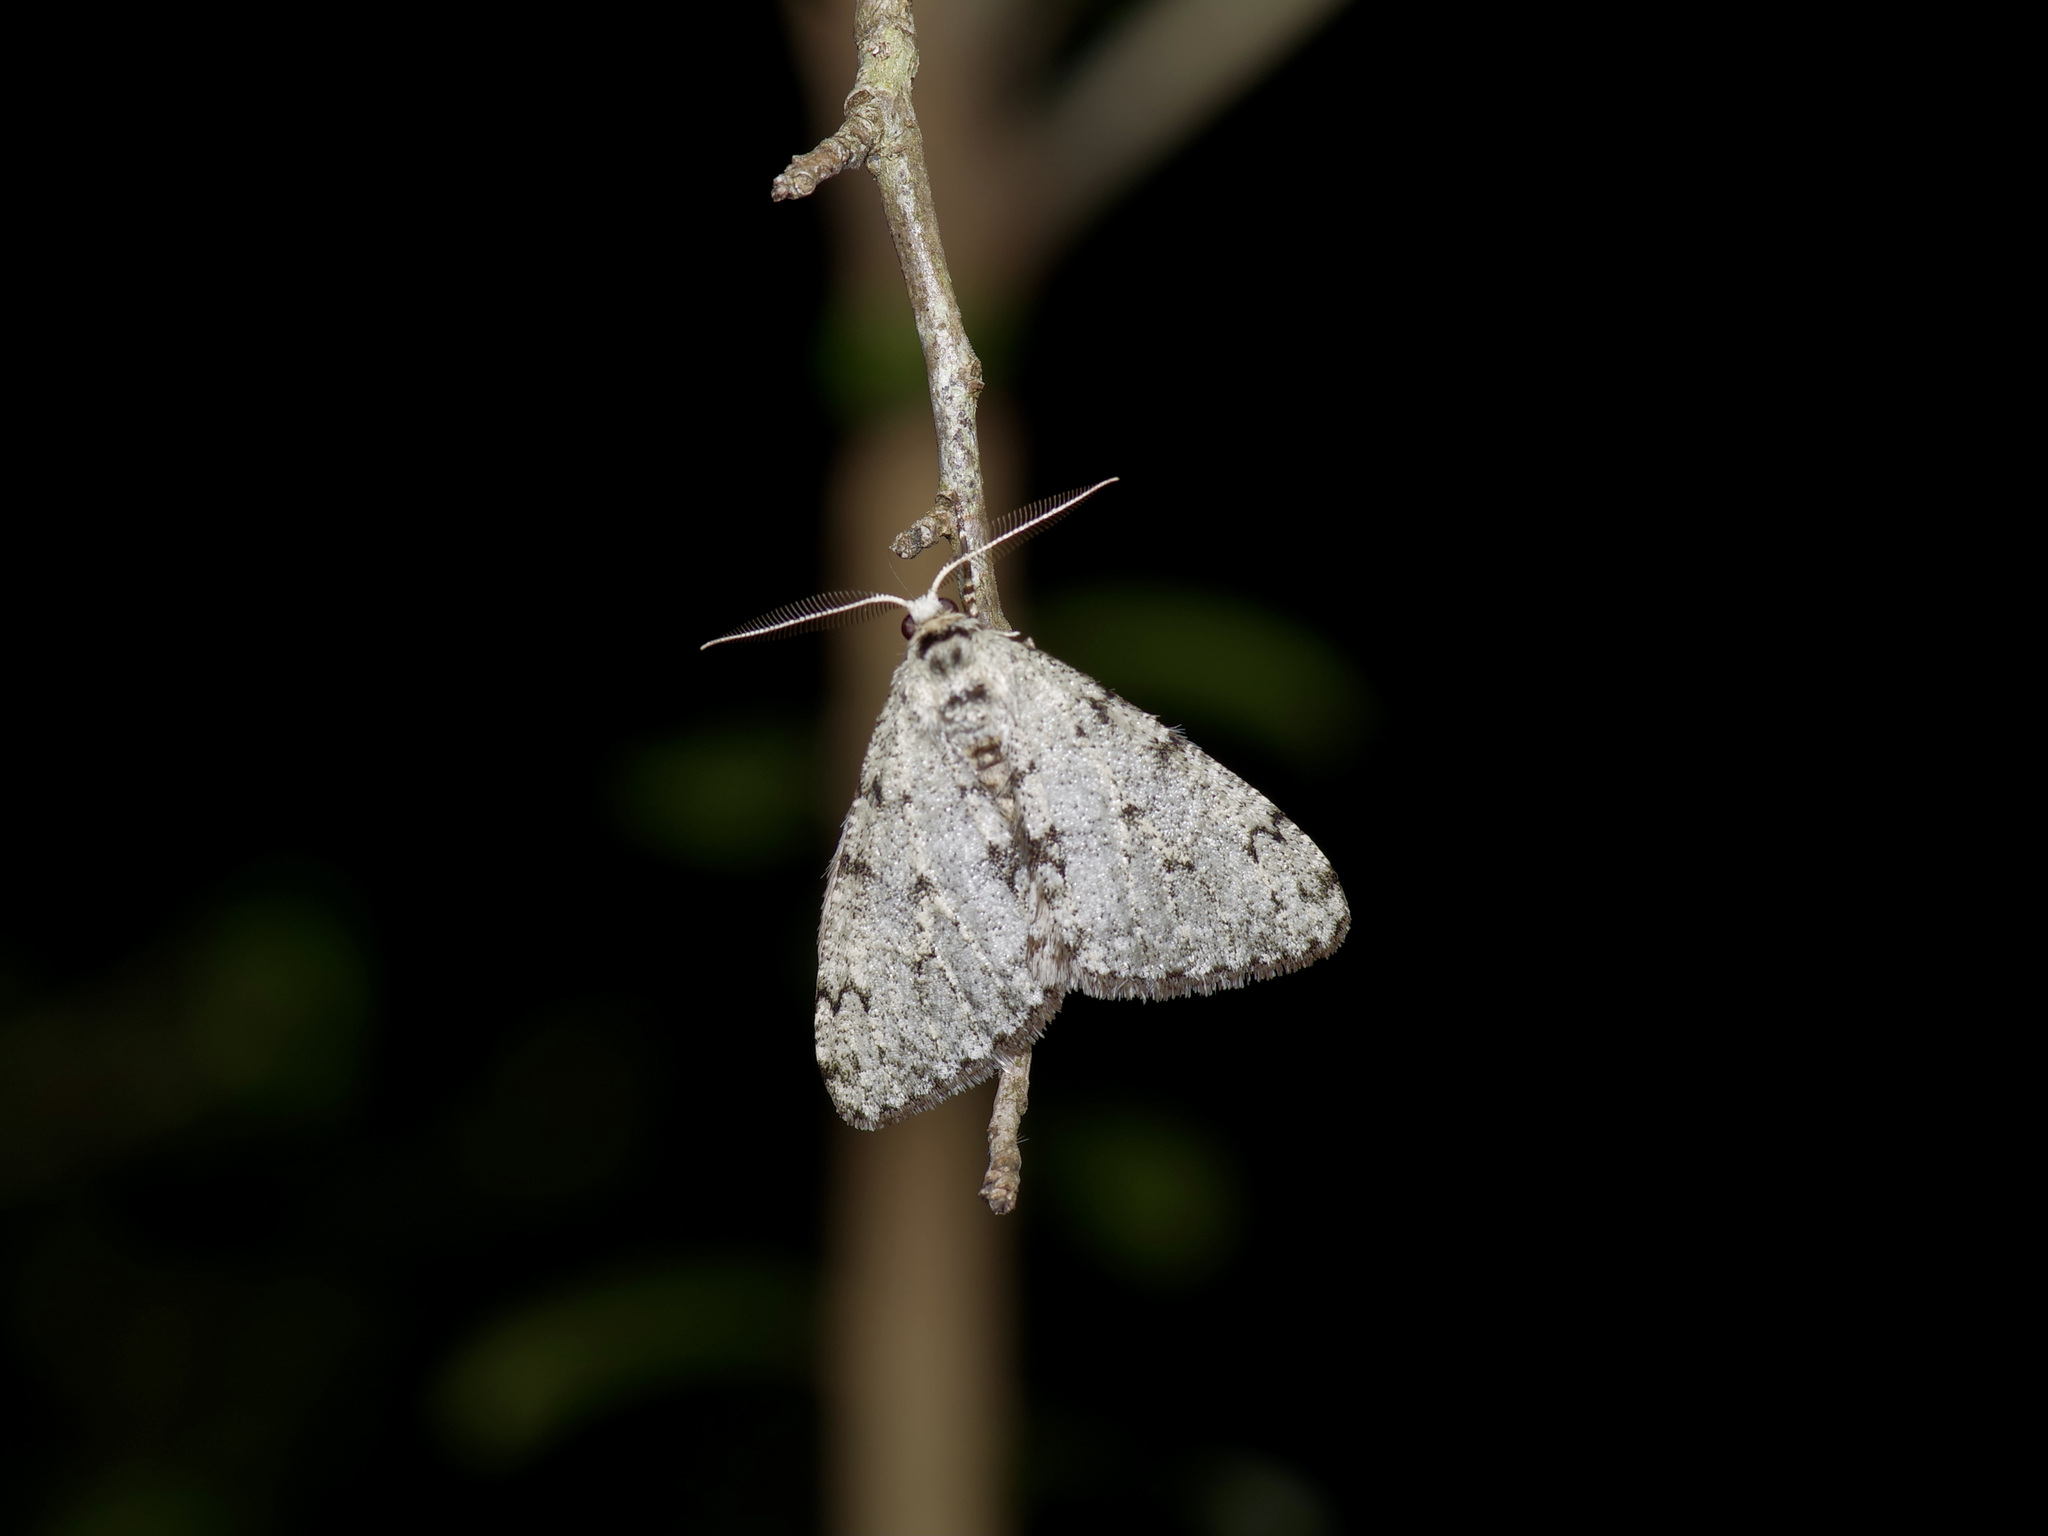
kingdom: Animalia
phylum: Arthropoda
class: Insecta
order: Lepidoptera
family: Geometridae
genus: Phigalia
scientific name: Phigalia strigataria
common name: Small phigalia
